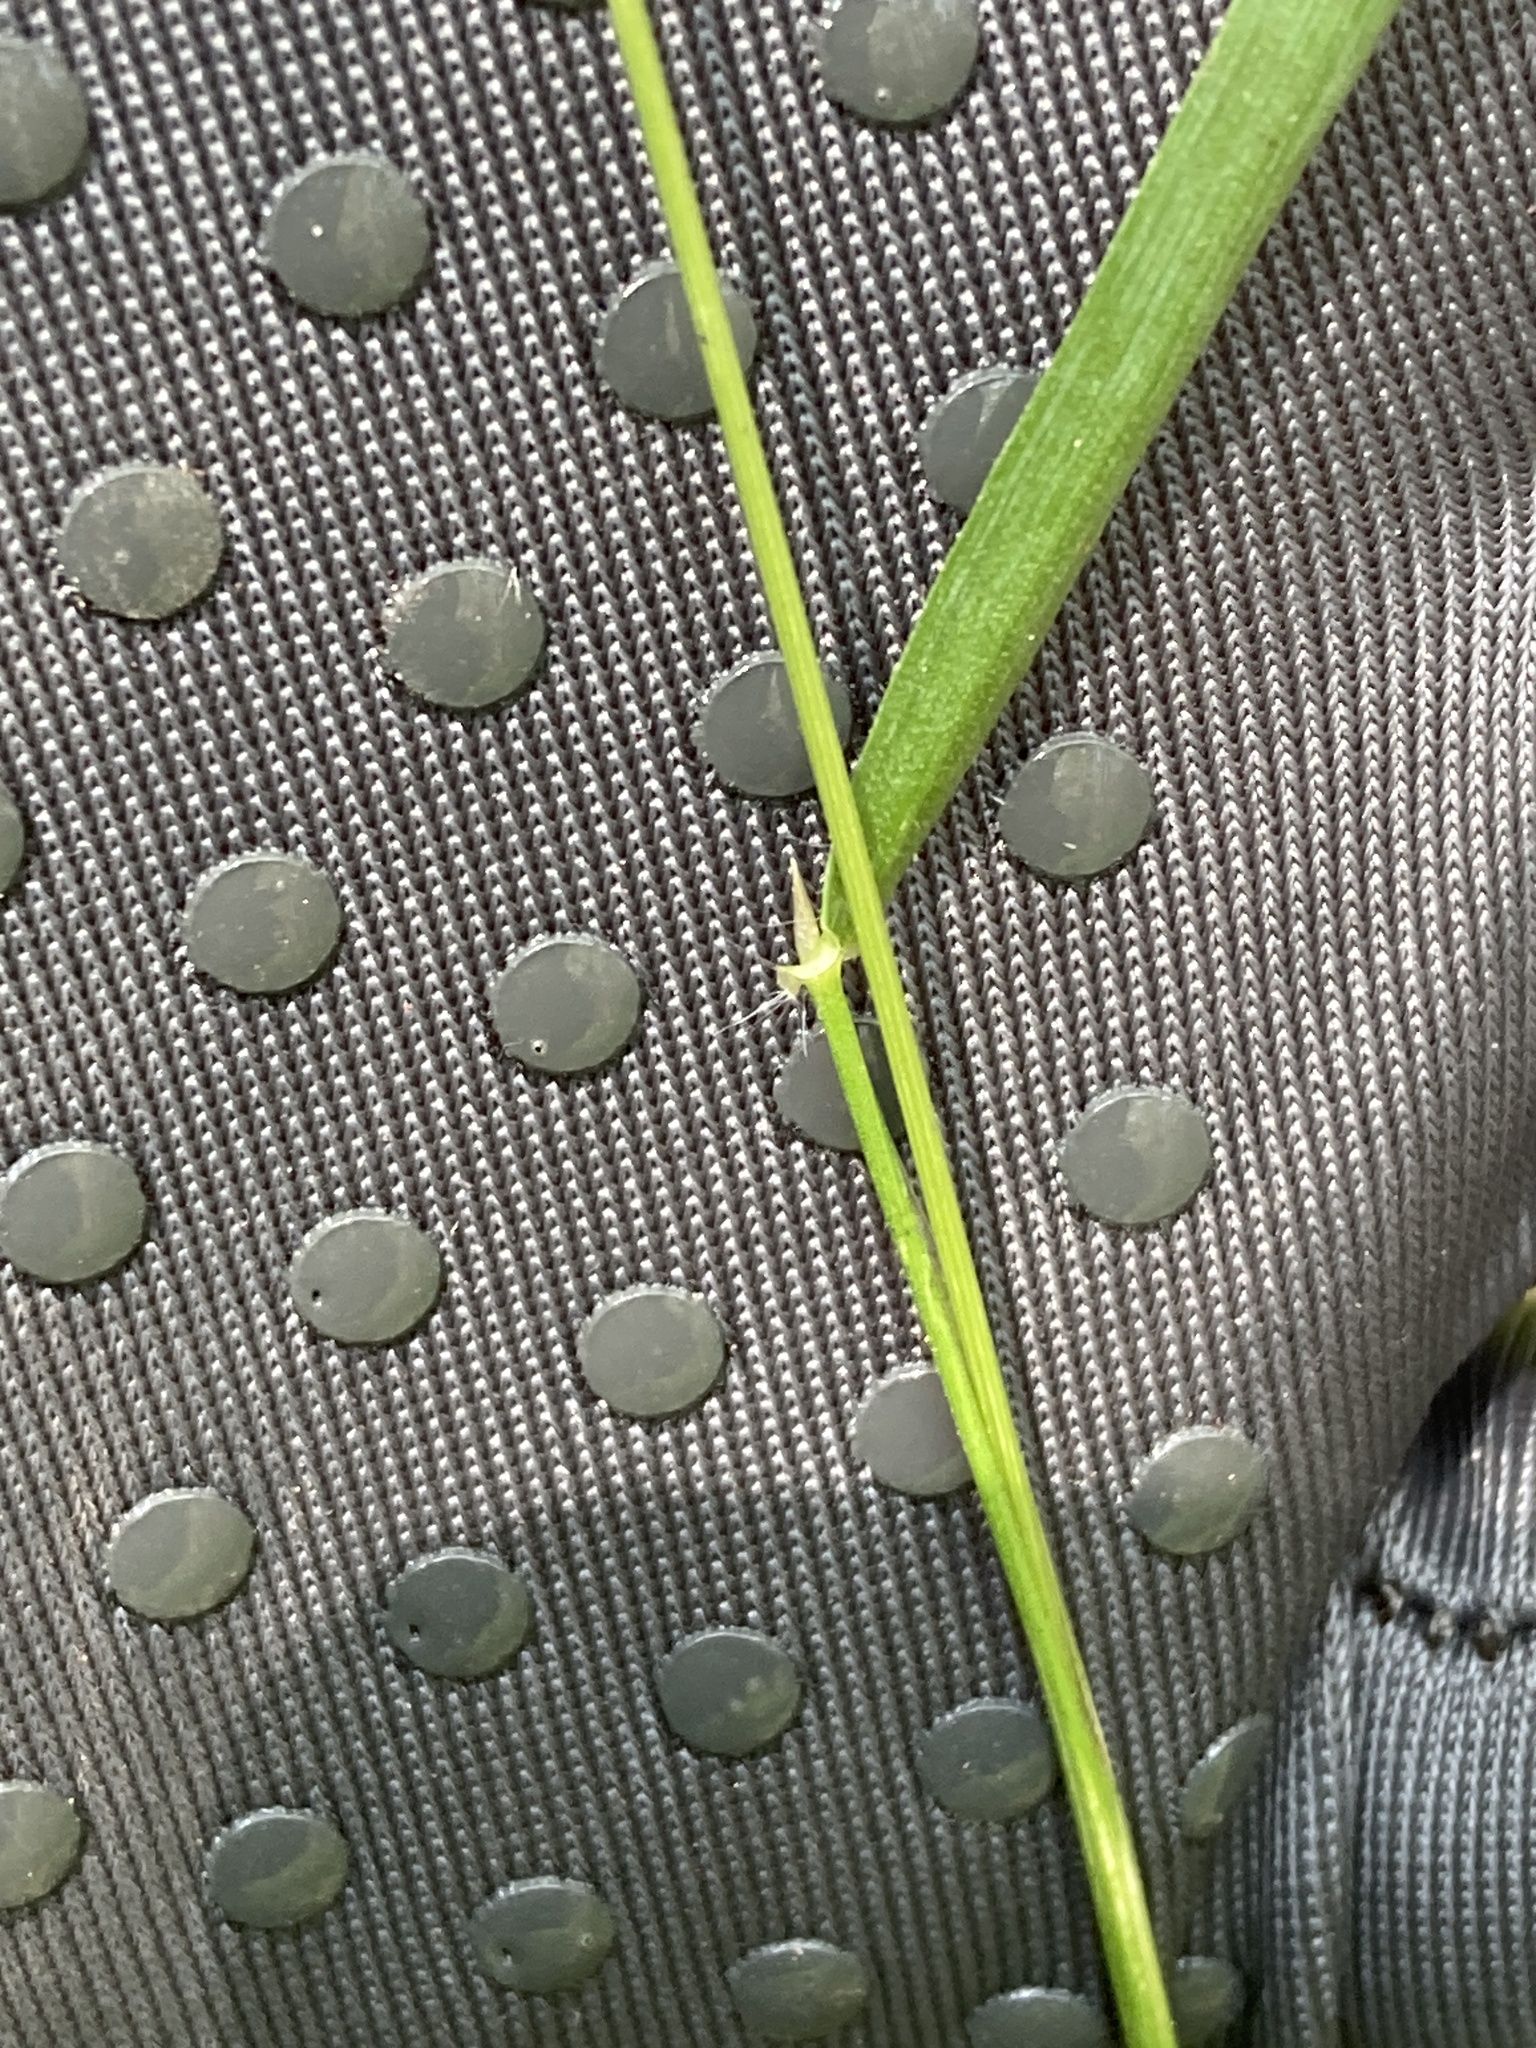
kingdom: Plantae
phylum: Tracheophyta
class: Liliopsida
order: Poales
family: Poaceae
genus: Anthoxanthum
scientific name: Anthoxanthum odoratum
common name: Sweet vernalgrass
